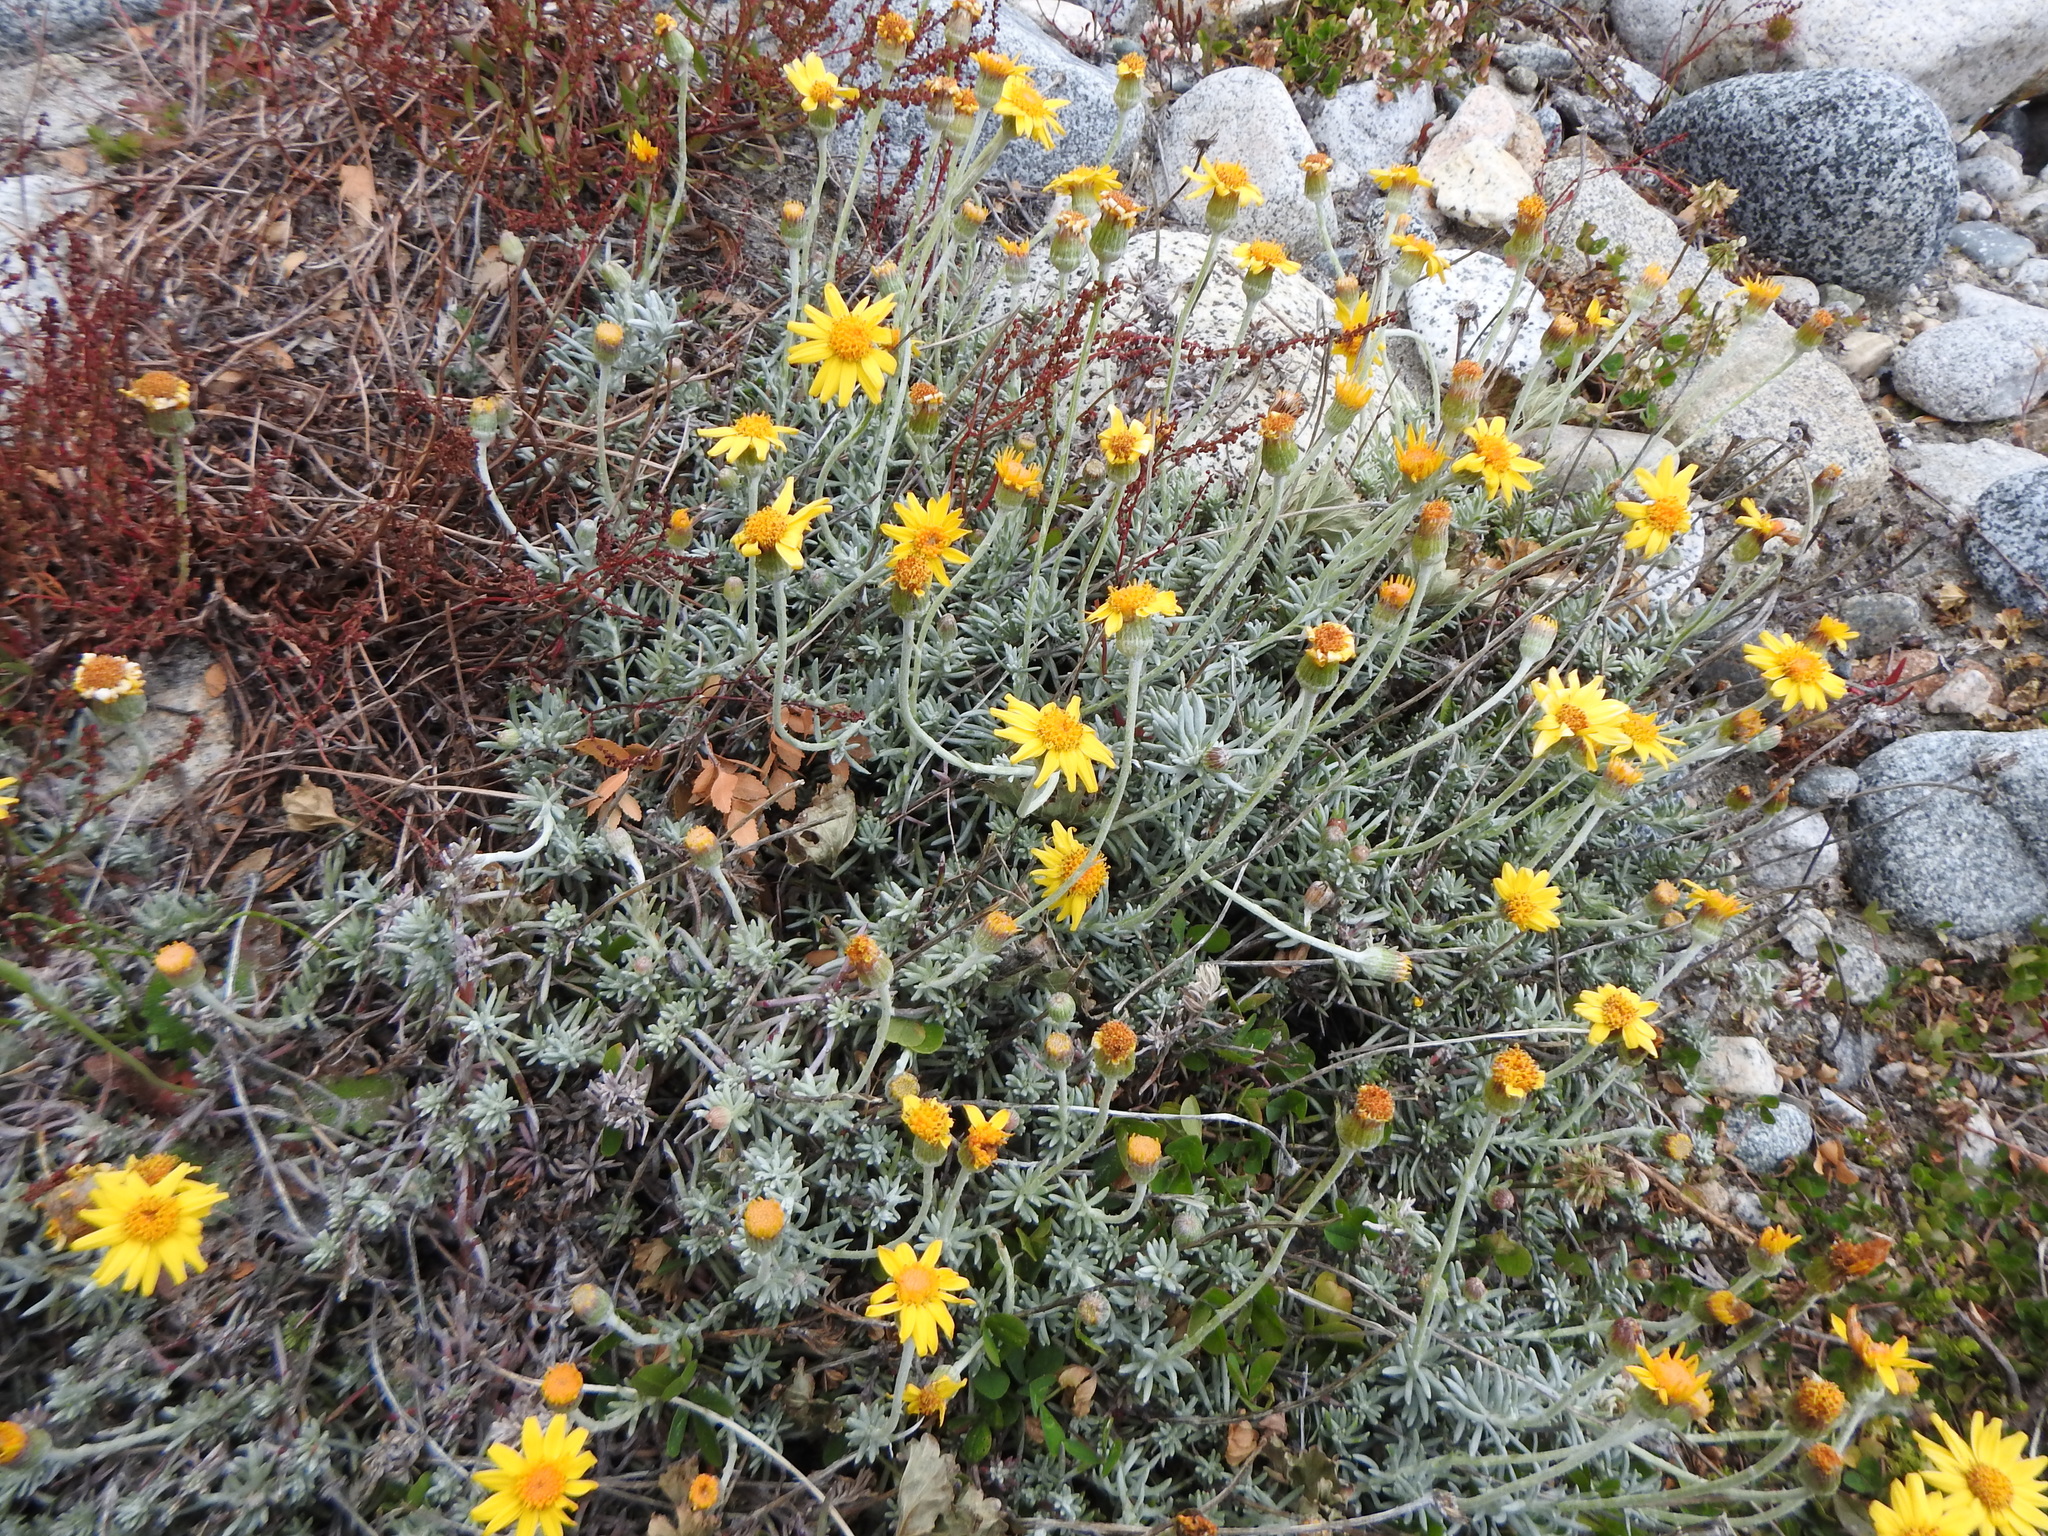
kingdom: Plantae
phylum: Tracheophyta
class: Magnoliopsida
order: Asterales
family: Asteraceae
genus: Senecio
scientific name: Senecio argyreus
